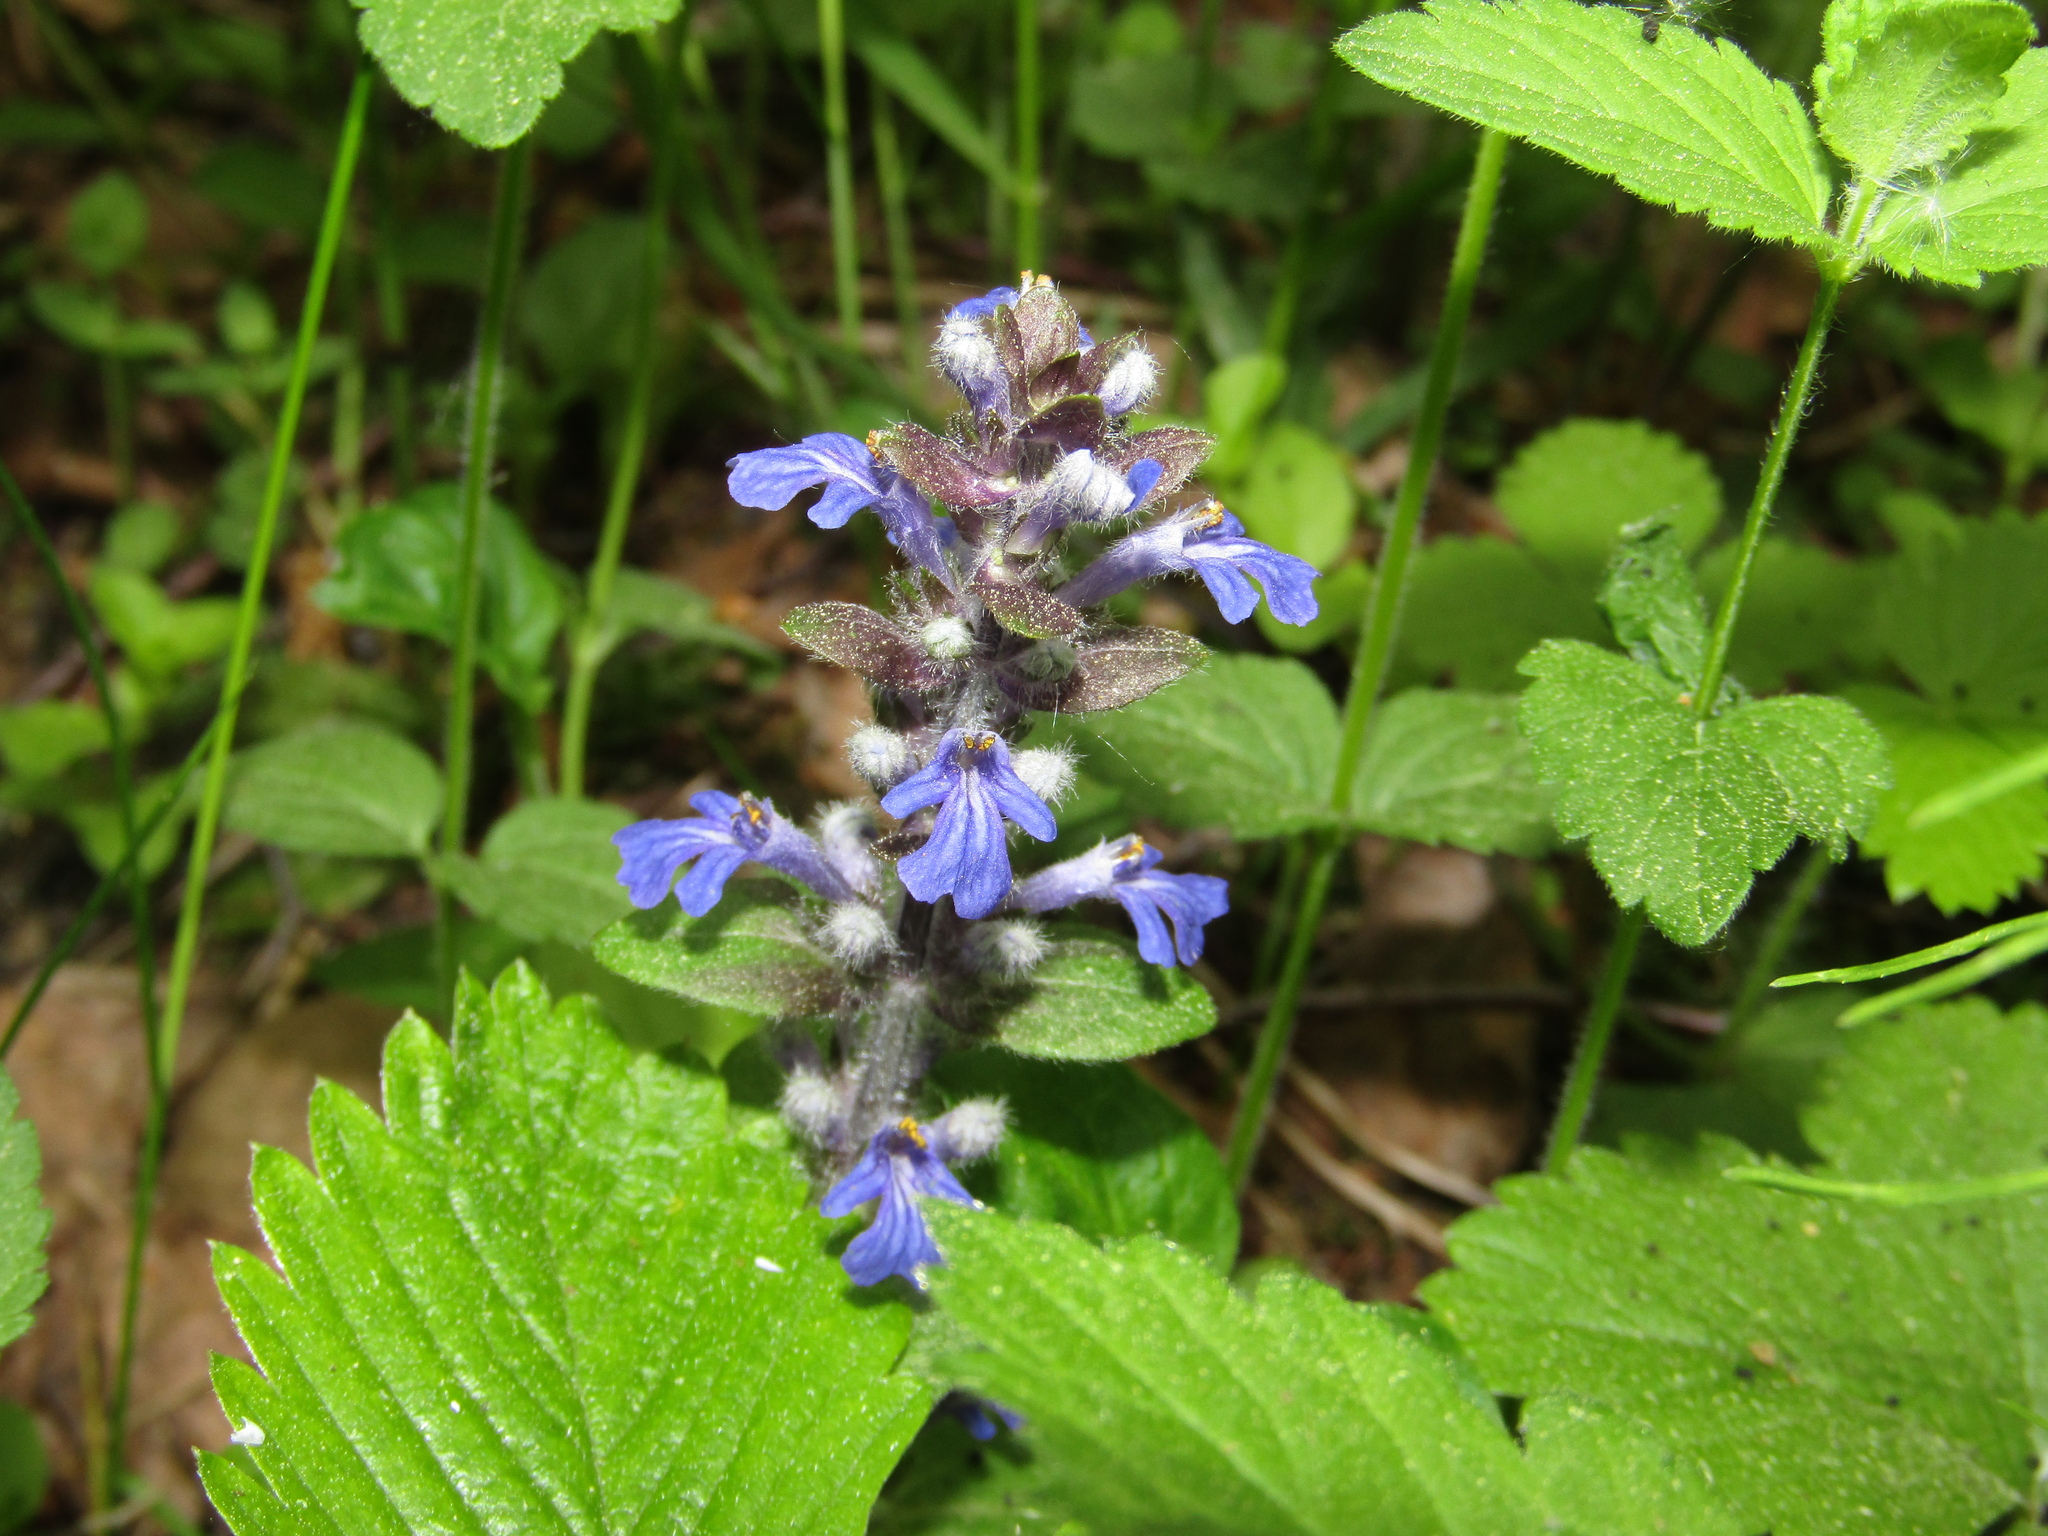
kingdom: Plantae
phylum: Tracheophyta
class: Magnoliopsida
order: Lamiales
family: Lamiaceae
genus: Ajuga
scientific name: Ajuga reptans
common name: Bugle
